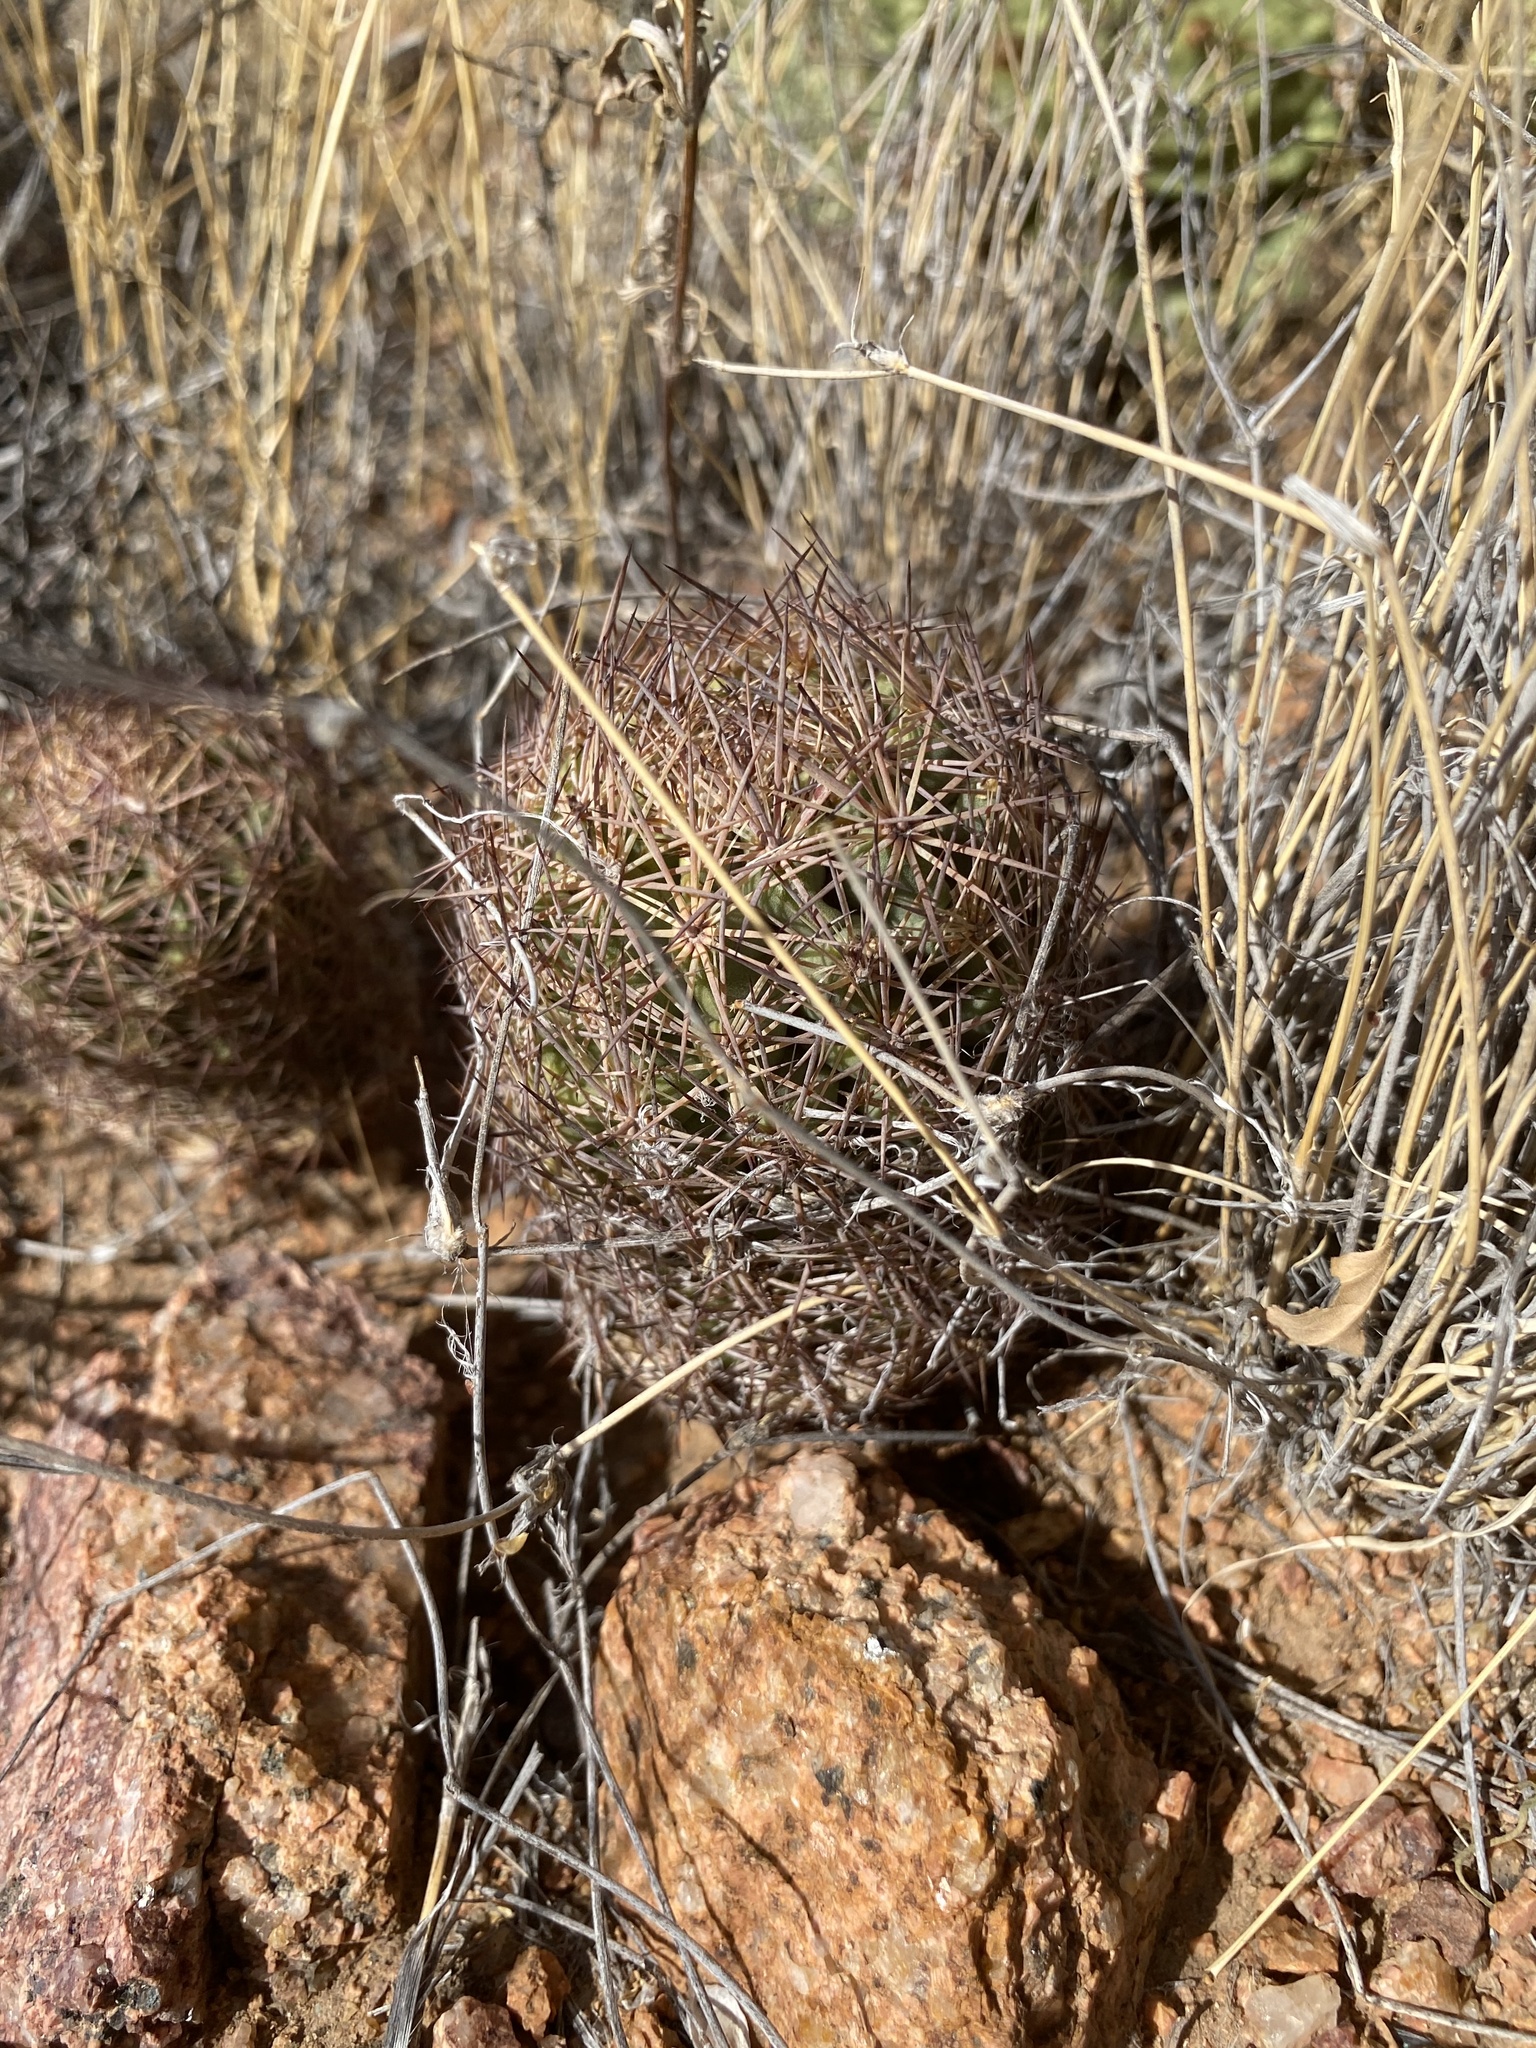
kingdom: Plantae
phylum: Tracheophyta
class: Magnoliopsida
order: Caryophyllales
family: Cactaceae
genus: Sclerocactus
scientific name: Sclerocactus intertextus
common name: White fish-hook cactus
